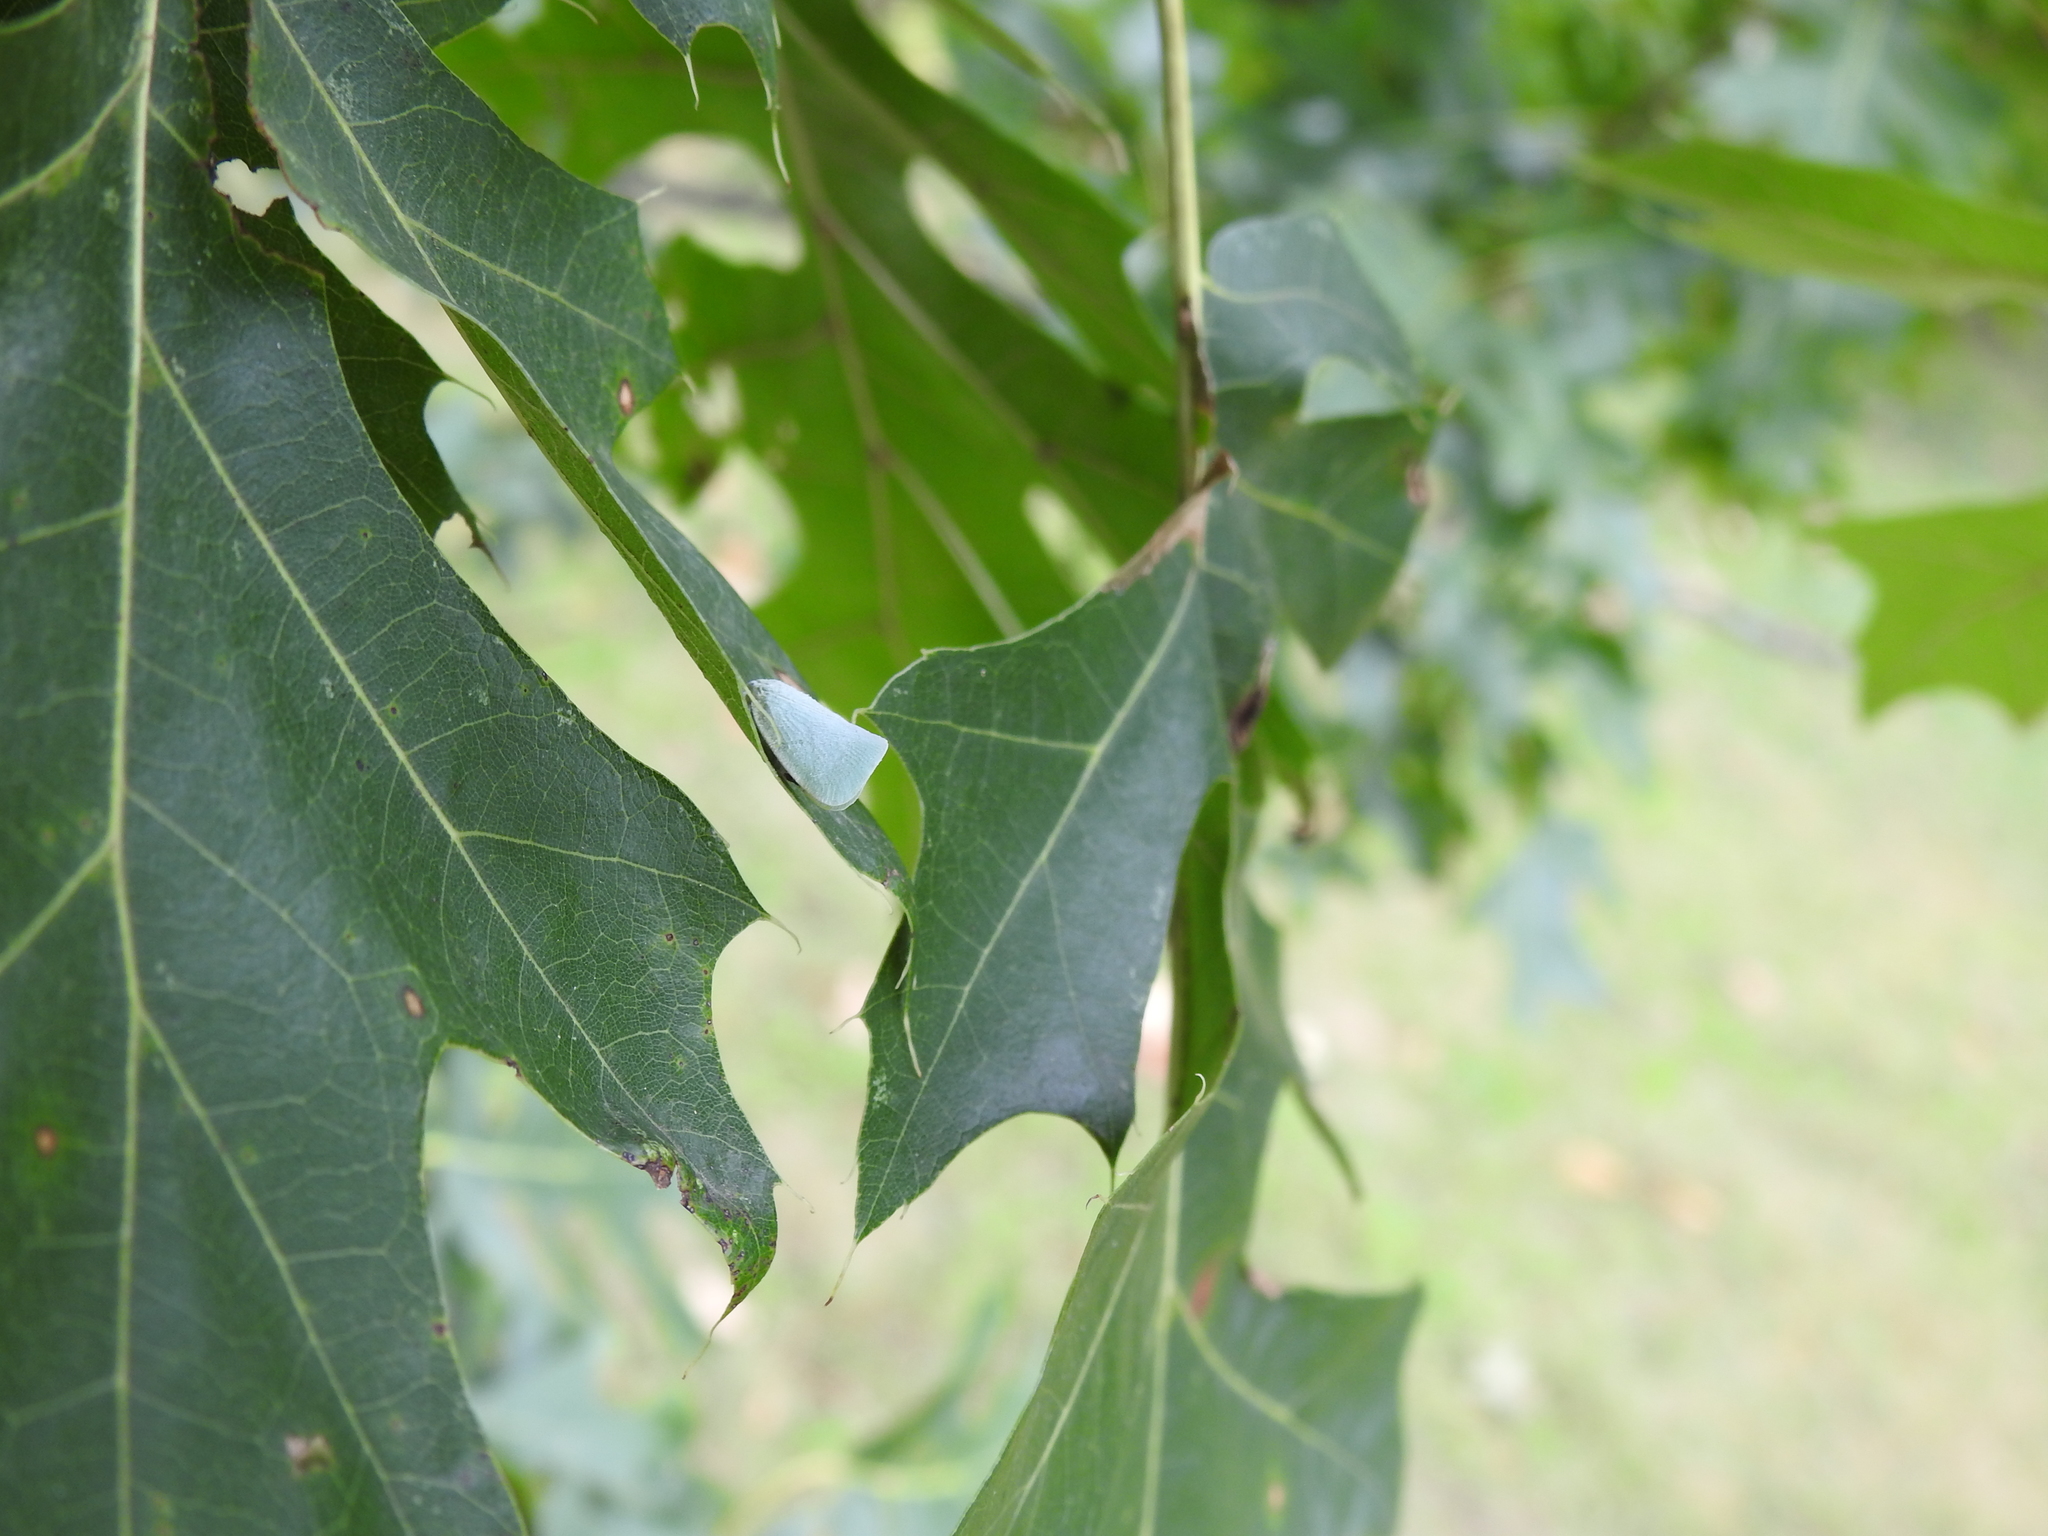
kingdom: Animalia
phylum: Arthropoda
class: Insecta
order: Hemiptera
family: Flatidae
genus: Flatormenis
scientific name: Flatormenis proxima
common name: Northern flatid planthopper
